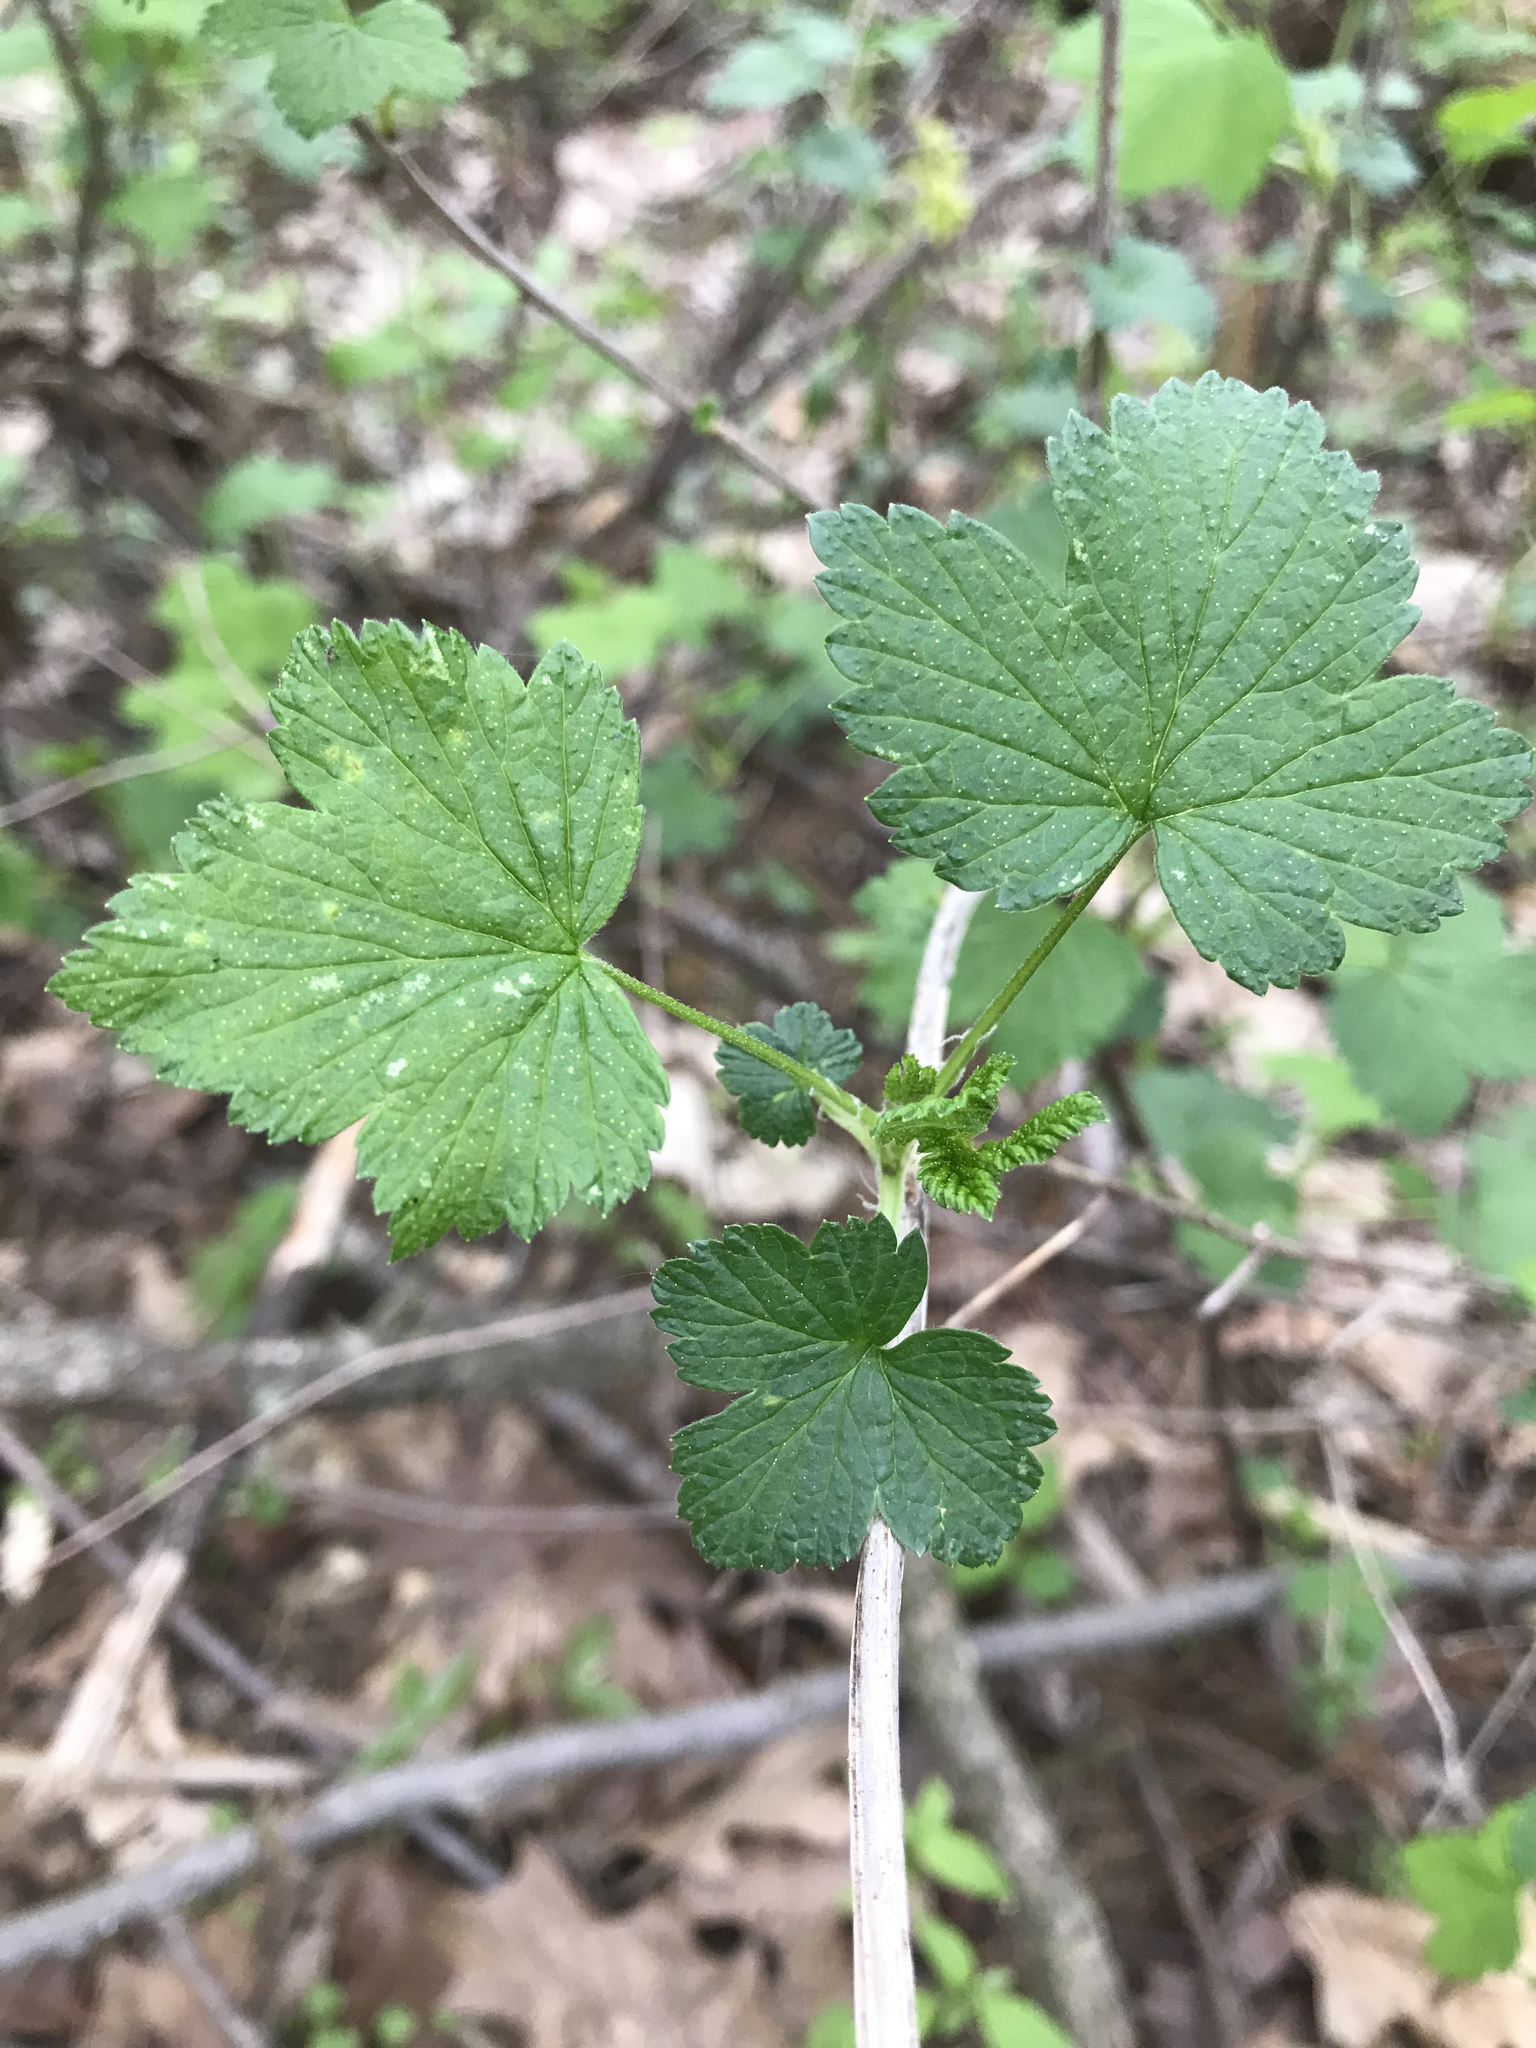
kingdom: Plantae
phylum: Tracheophyta
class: Magnoliopsida
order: Saxifragales
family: Grossulariaceae
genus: Ribes
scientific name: Ribes americanum
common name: American black currant
